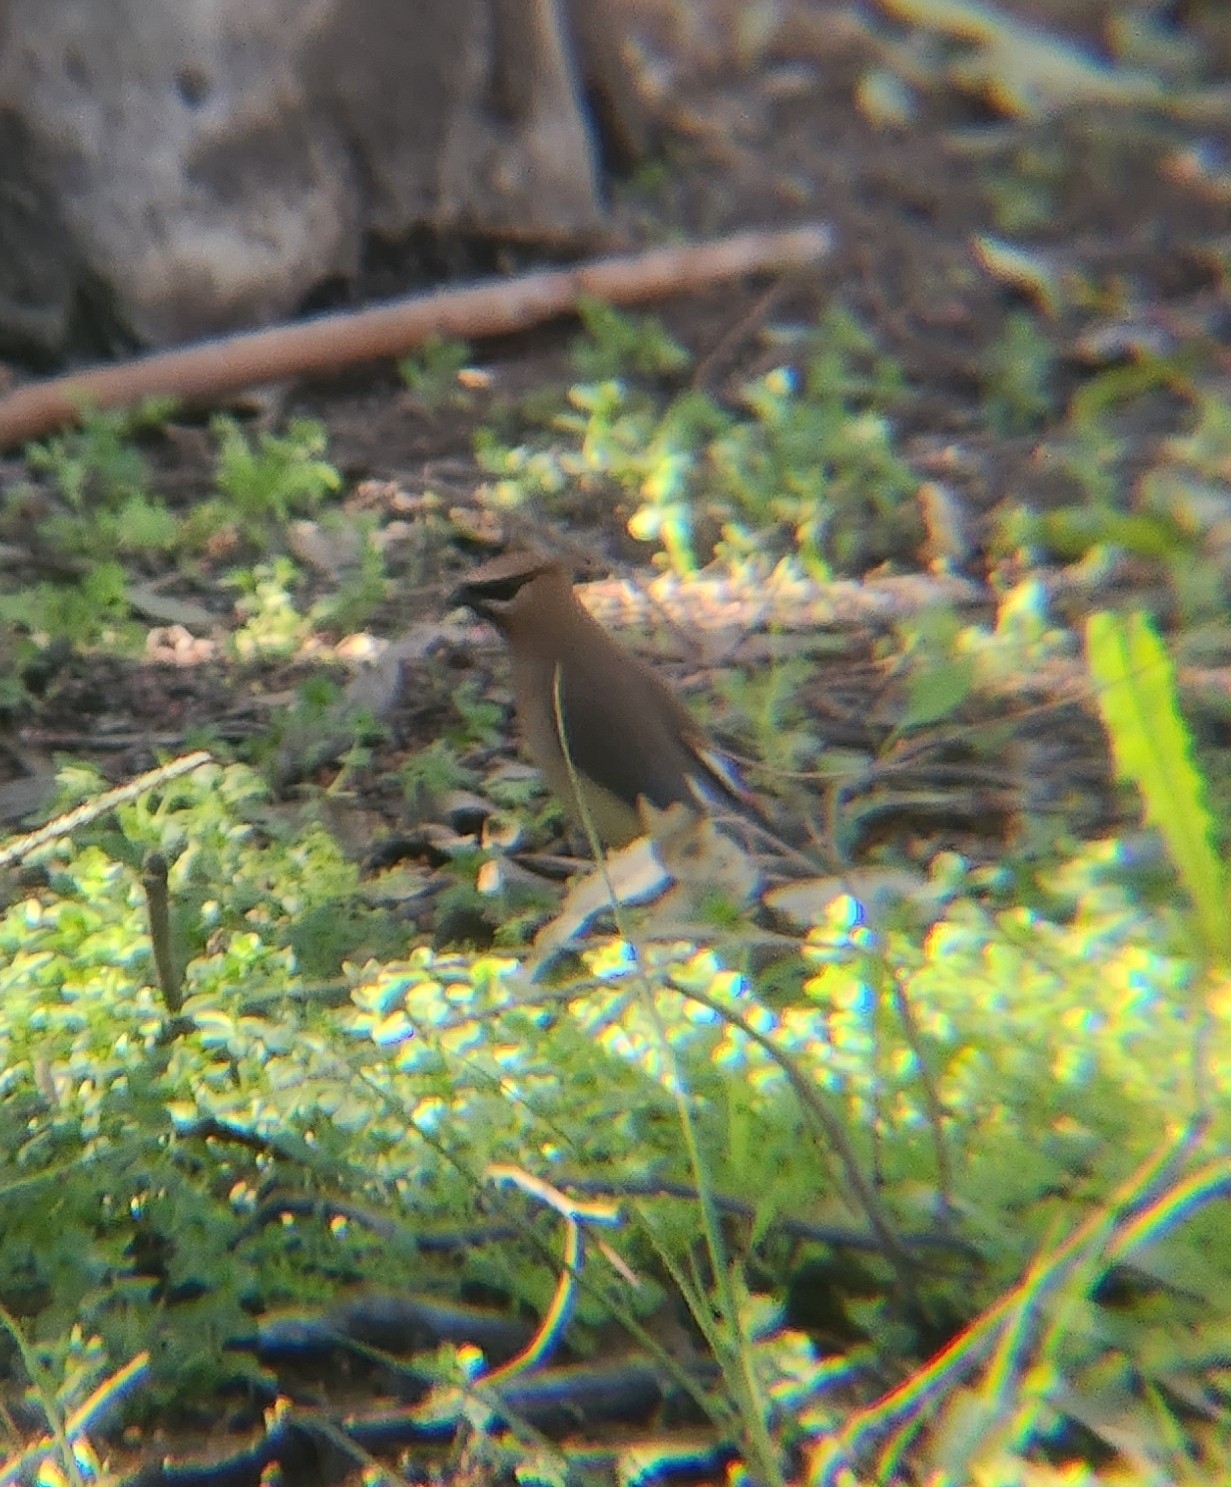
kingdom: Animalia
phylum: Chordata
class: Aves
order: Passeriformes
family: Bombycillidae
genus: Bombycilla
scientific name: Bombycilla cedrorum
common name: Cedar waxwing
